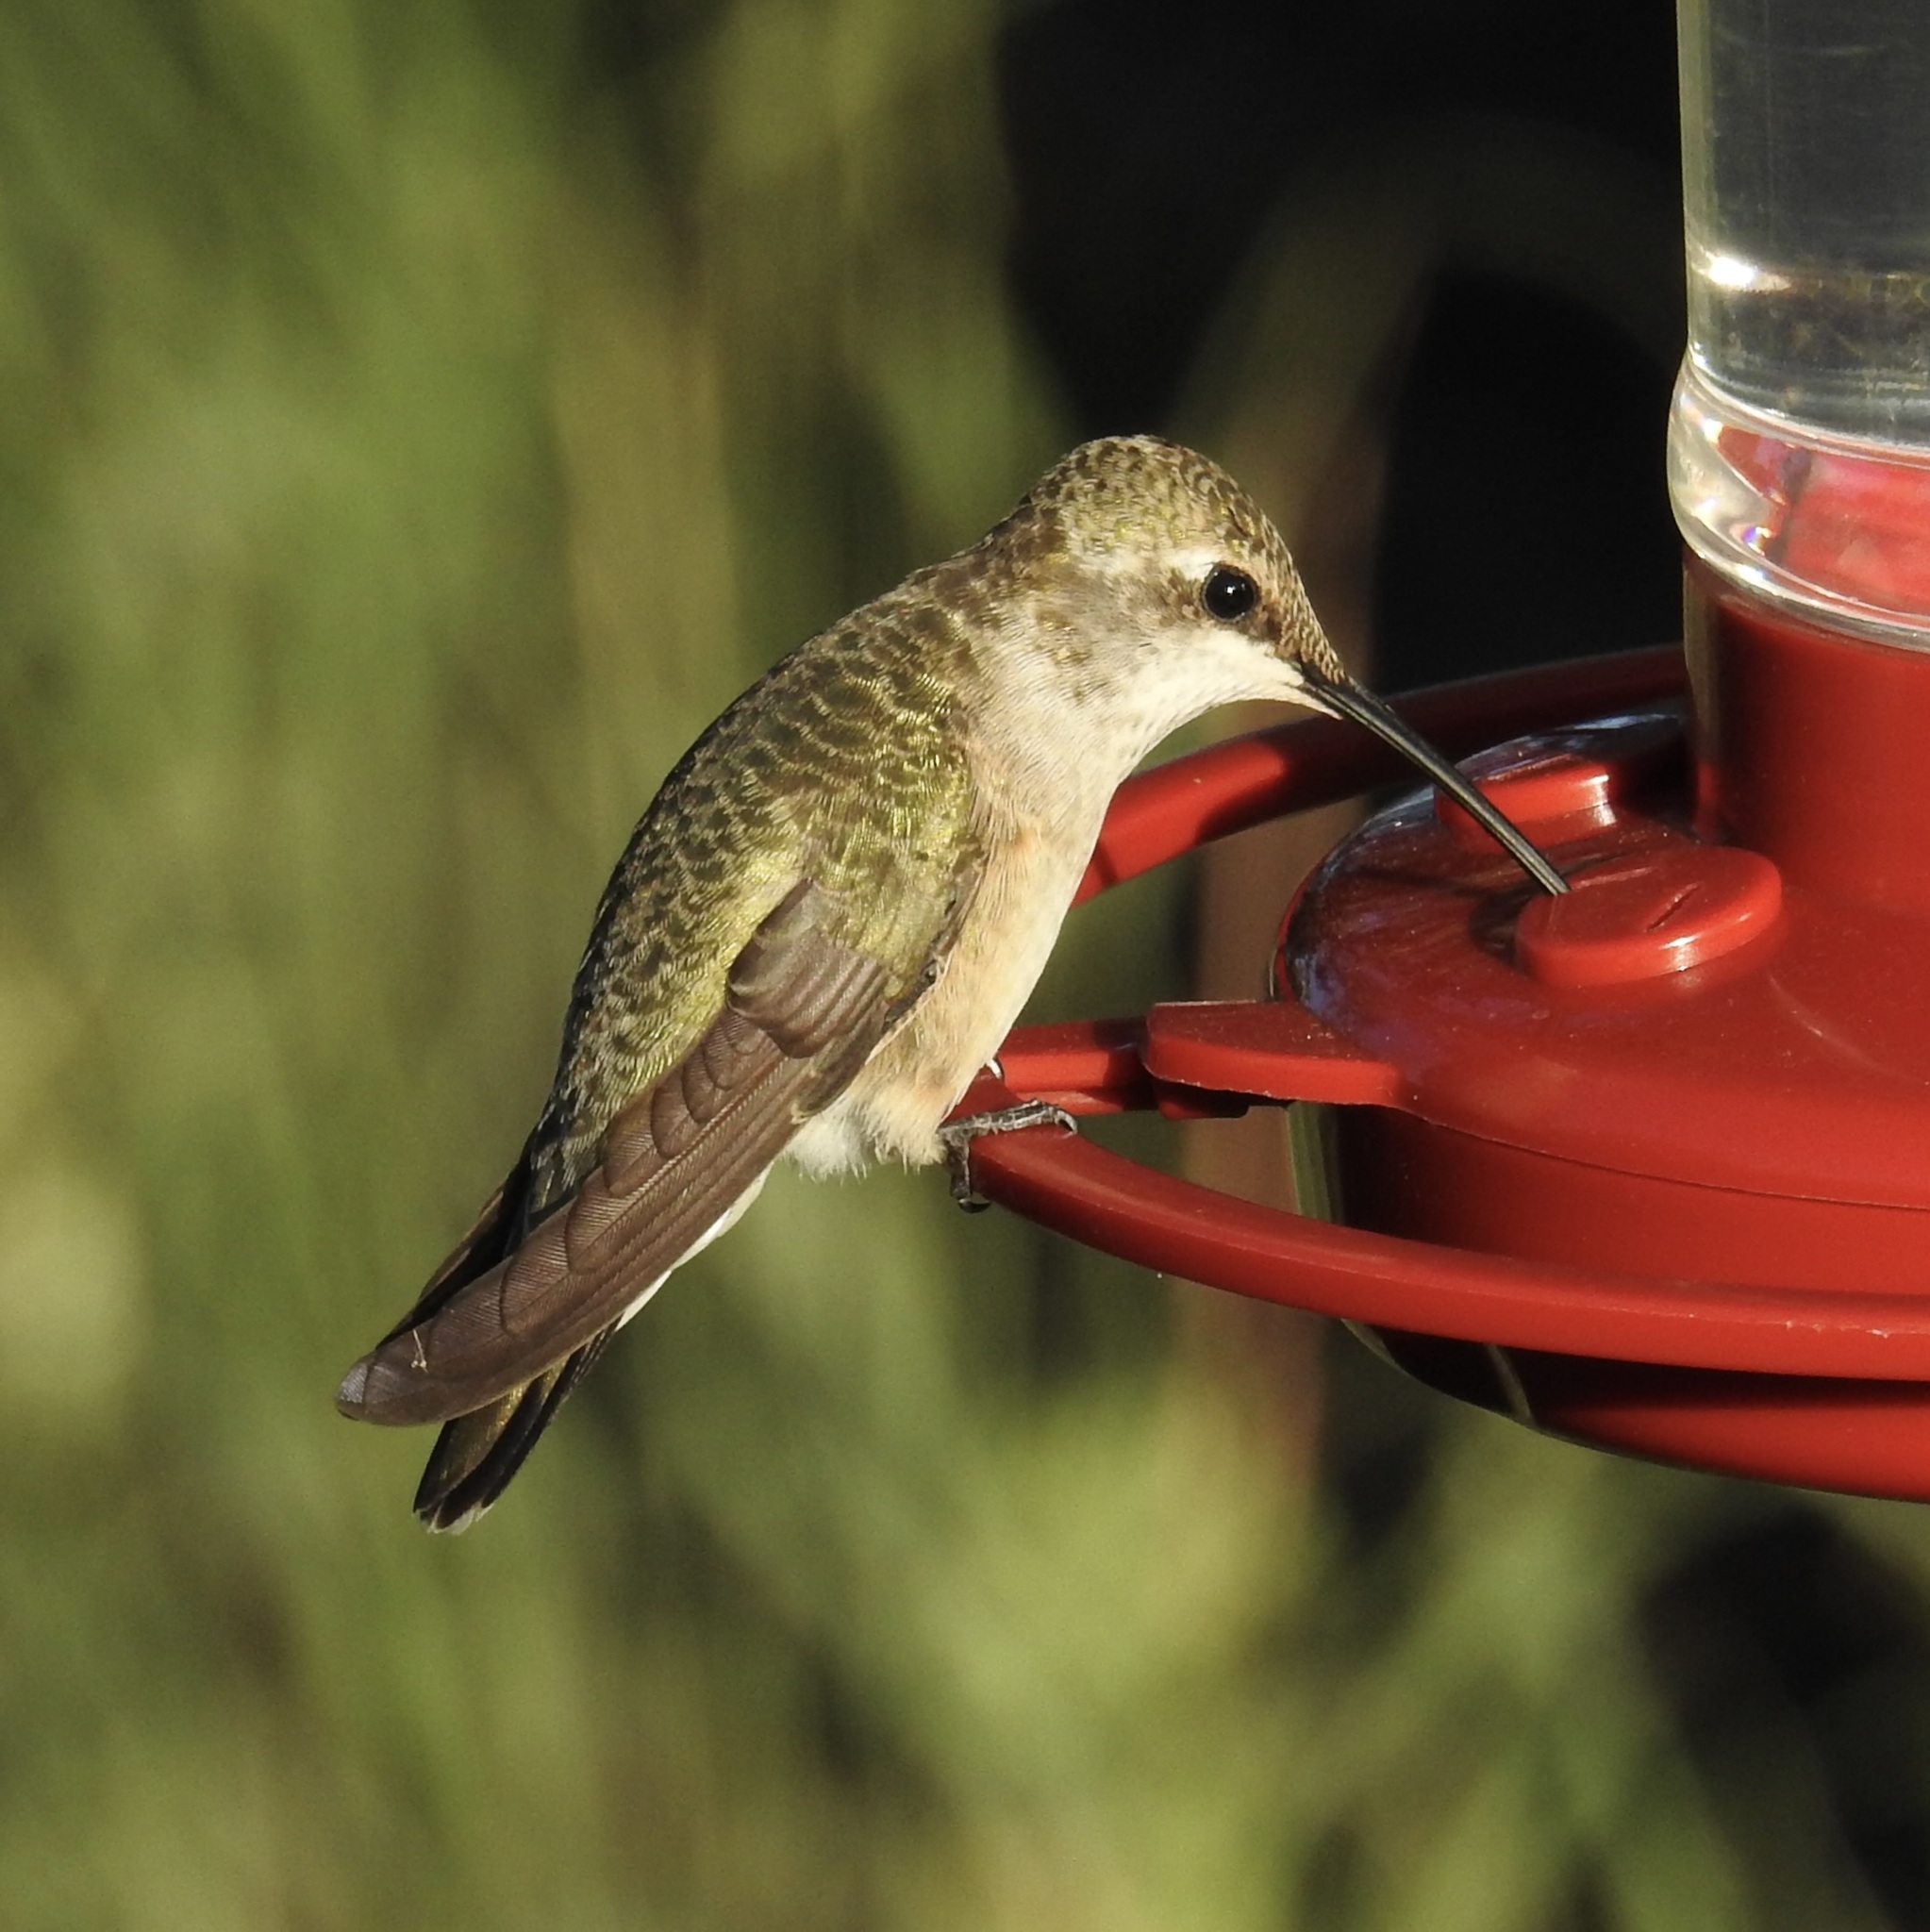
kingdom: Animalia
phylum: Chordata
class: Aves
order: Apodiformes
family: Trochilidae
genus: Archilochus
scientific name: Archilochus alexandri
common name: Black-chinned hummingbird
